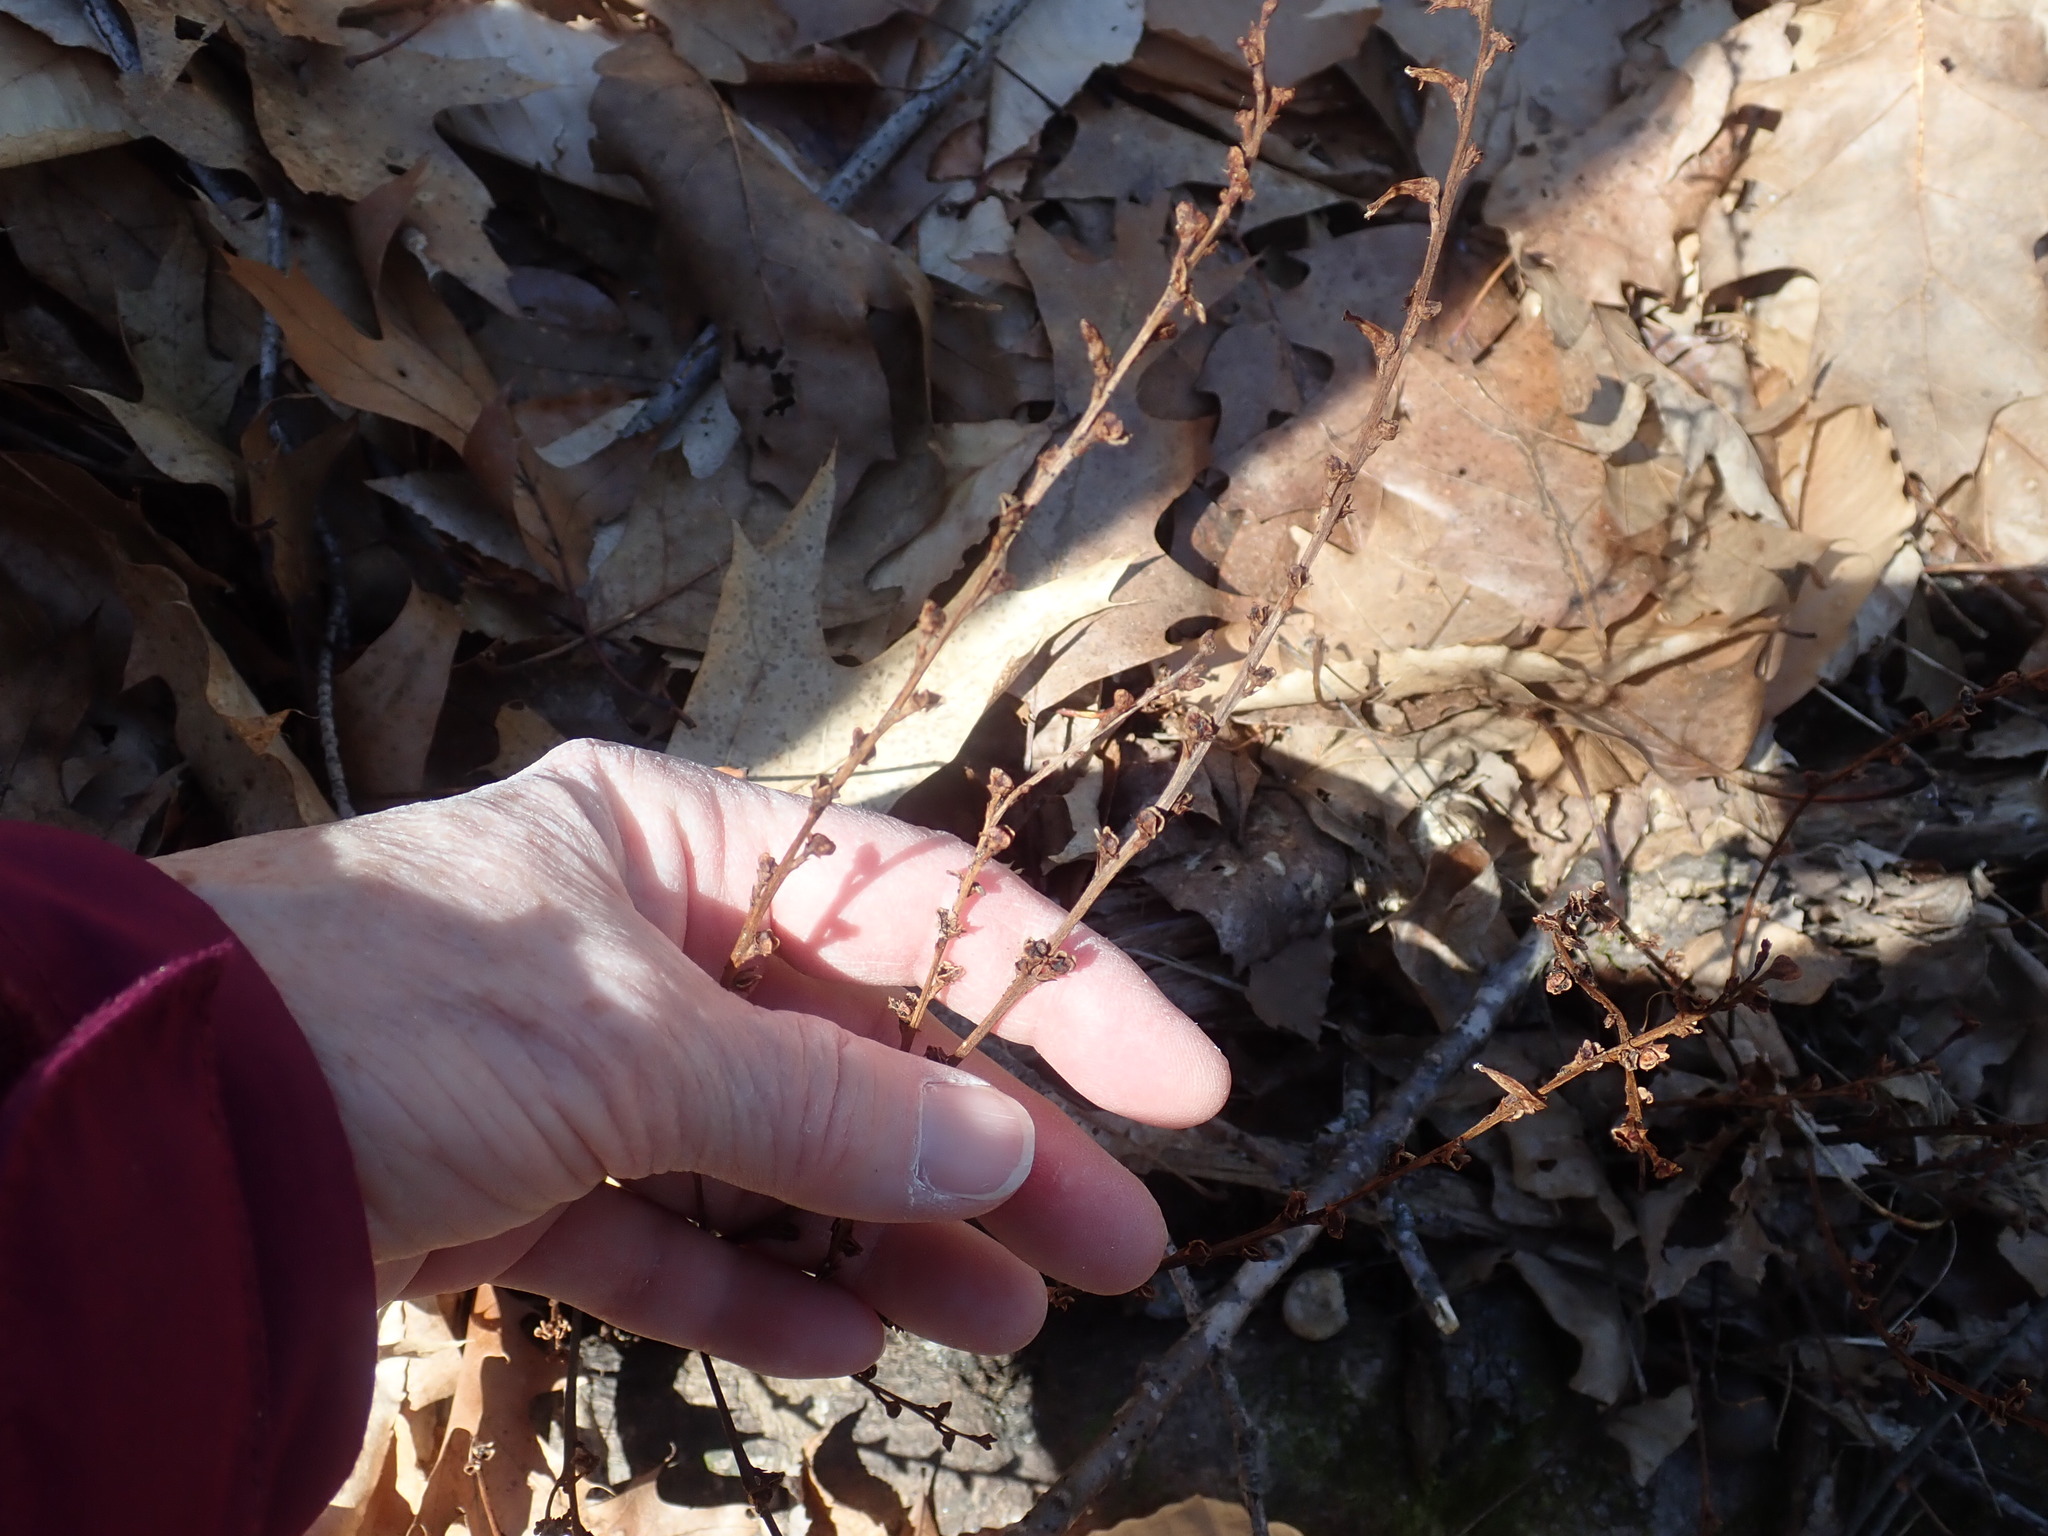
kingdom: Plantae
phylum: Tracheophyta
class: Magnoliopsida
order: Lamiales
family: Orobanchaceae
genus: Epifagus
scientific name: Epifagus virginiana
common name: Beechdrops
